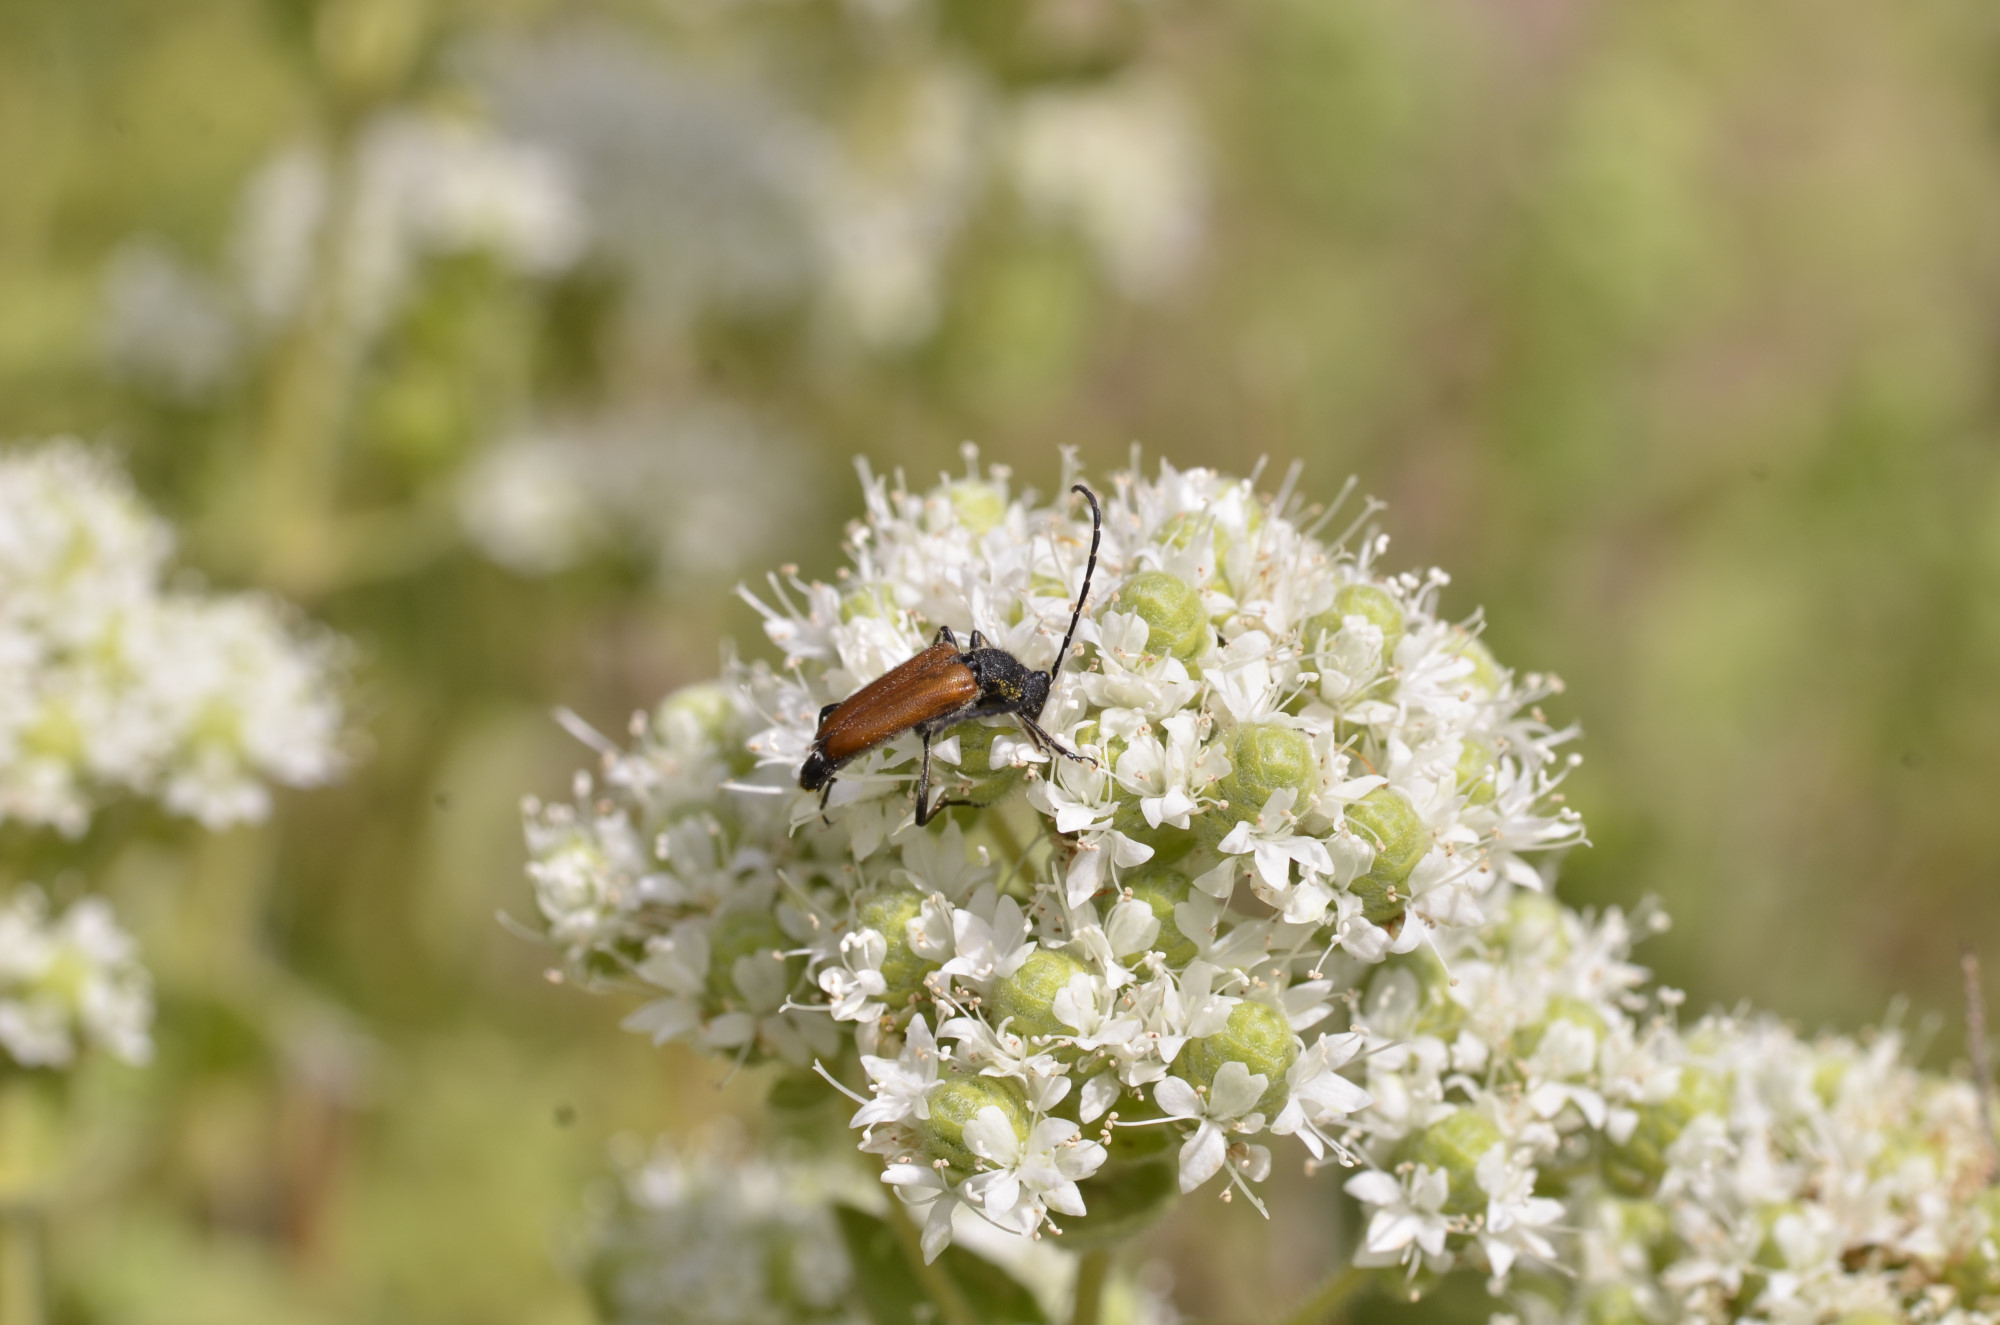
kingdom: Animalia
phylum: Arthropoda
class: Insecta
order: Coleoptera
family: Cerambycidae
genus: Stictoleptura
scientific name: Stictoleptura picticornis
